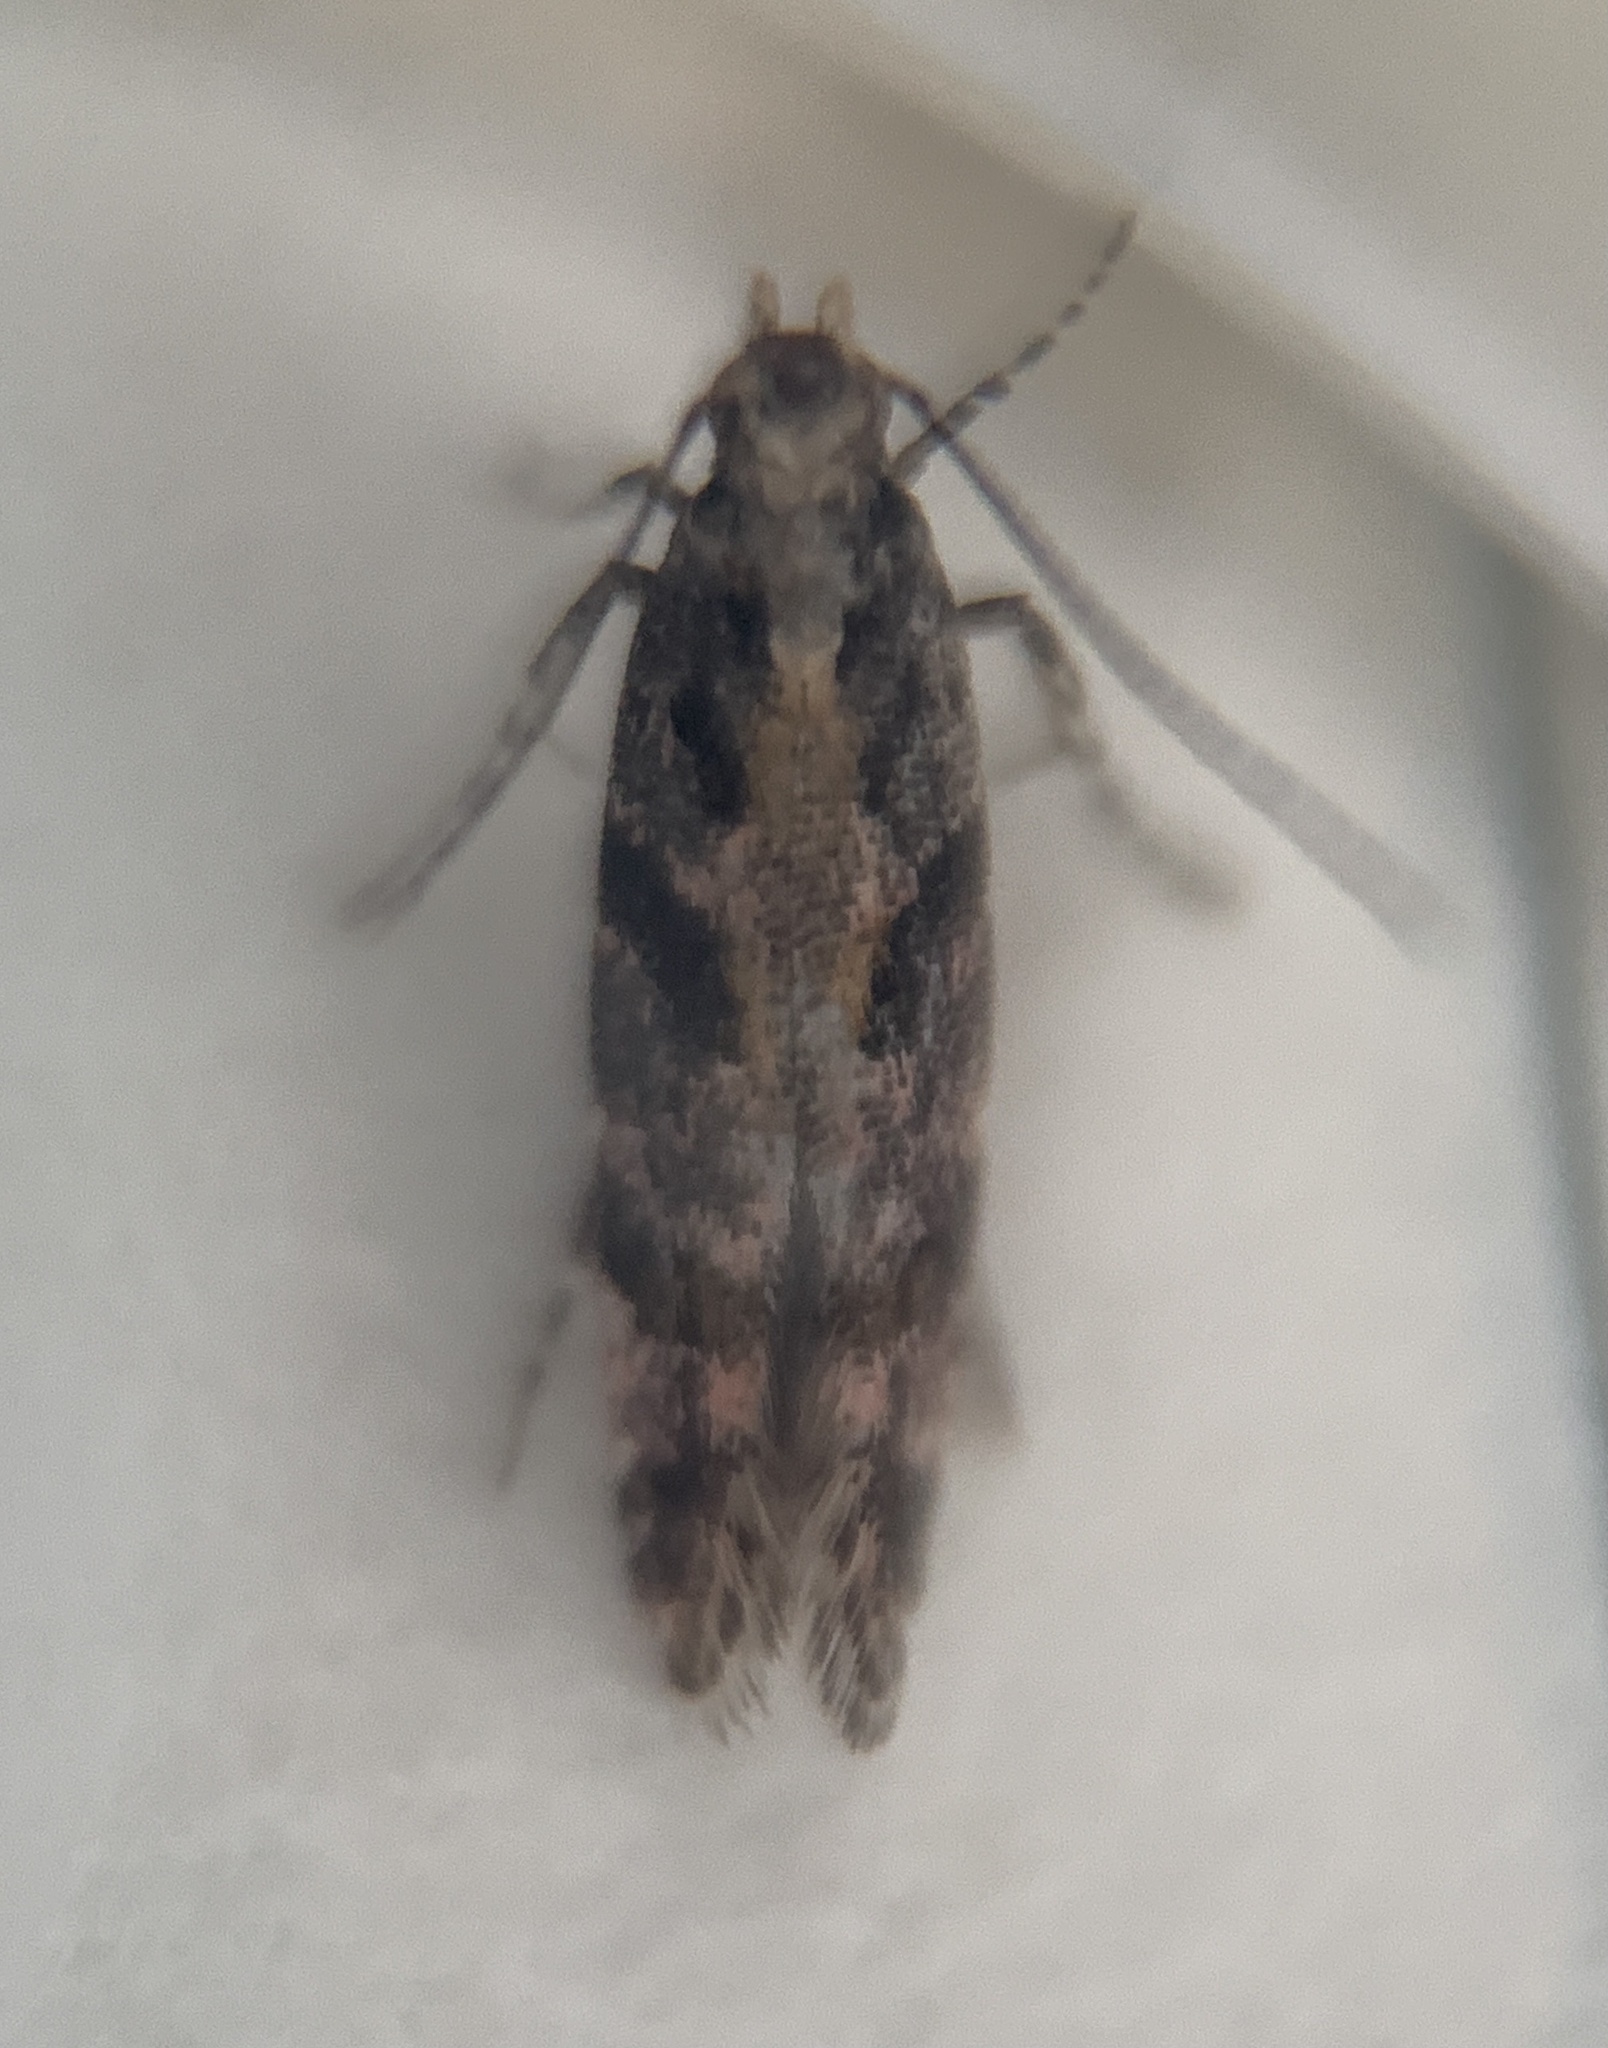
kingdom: Animalia
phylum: Arthropoda
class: Insecta
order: Lepidoptera
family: Gelechiidae
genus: Aristotelia
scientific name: Aristotelia rubidella
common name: Ruby aristotelia moth
